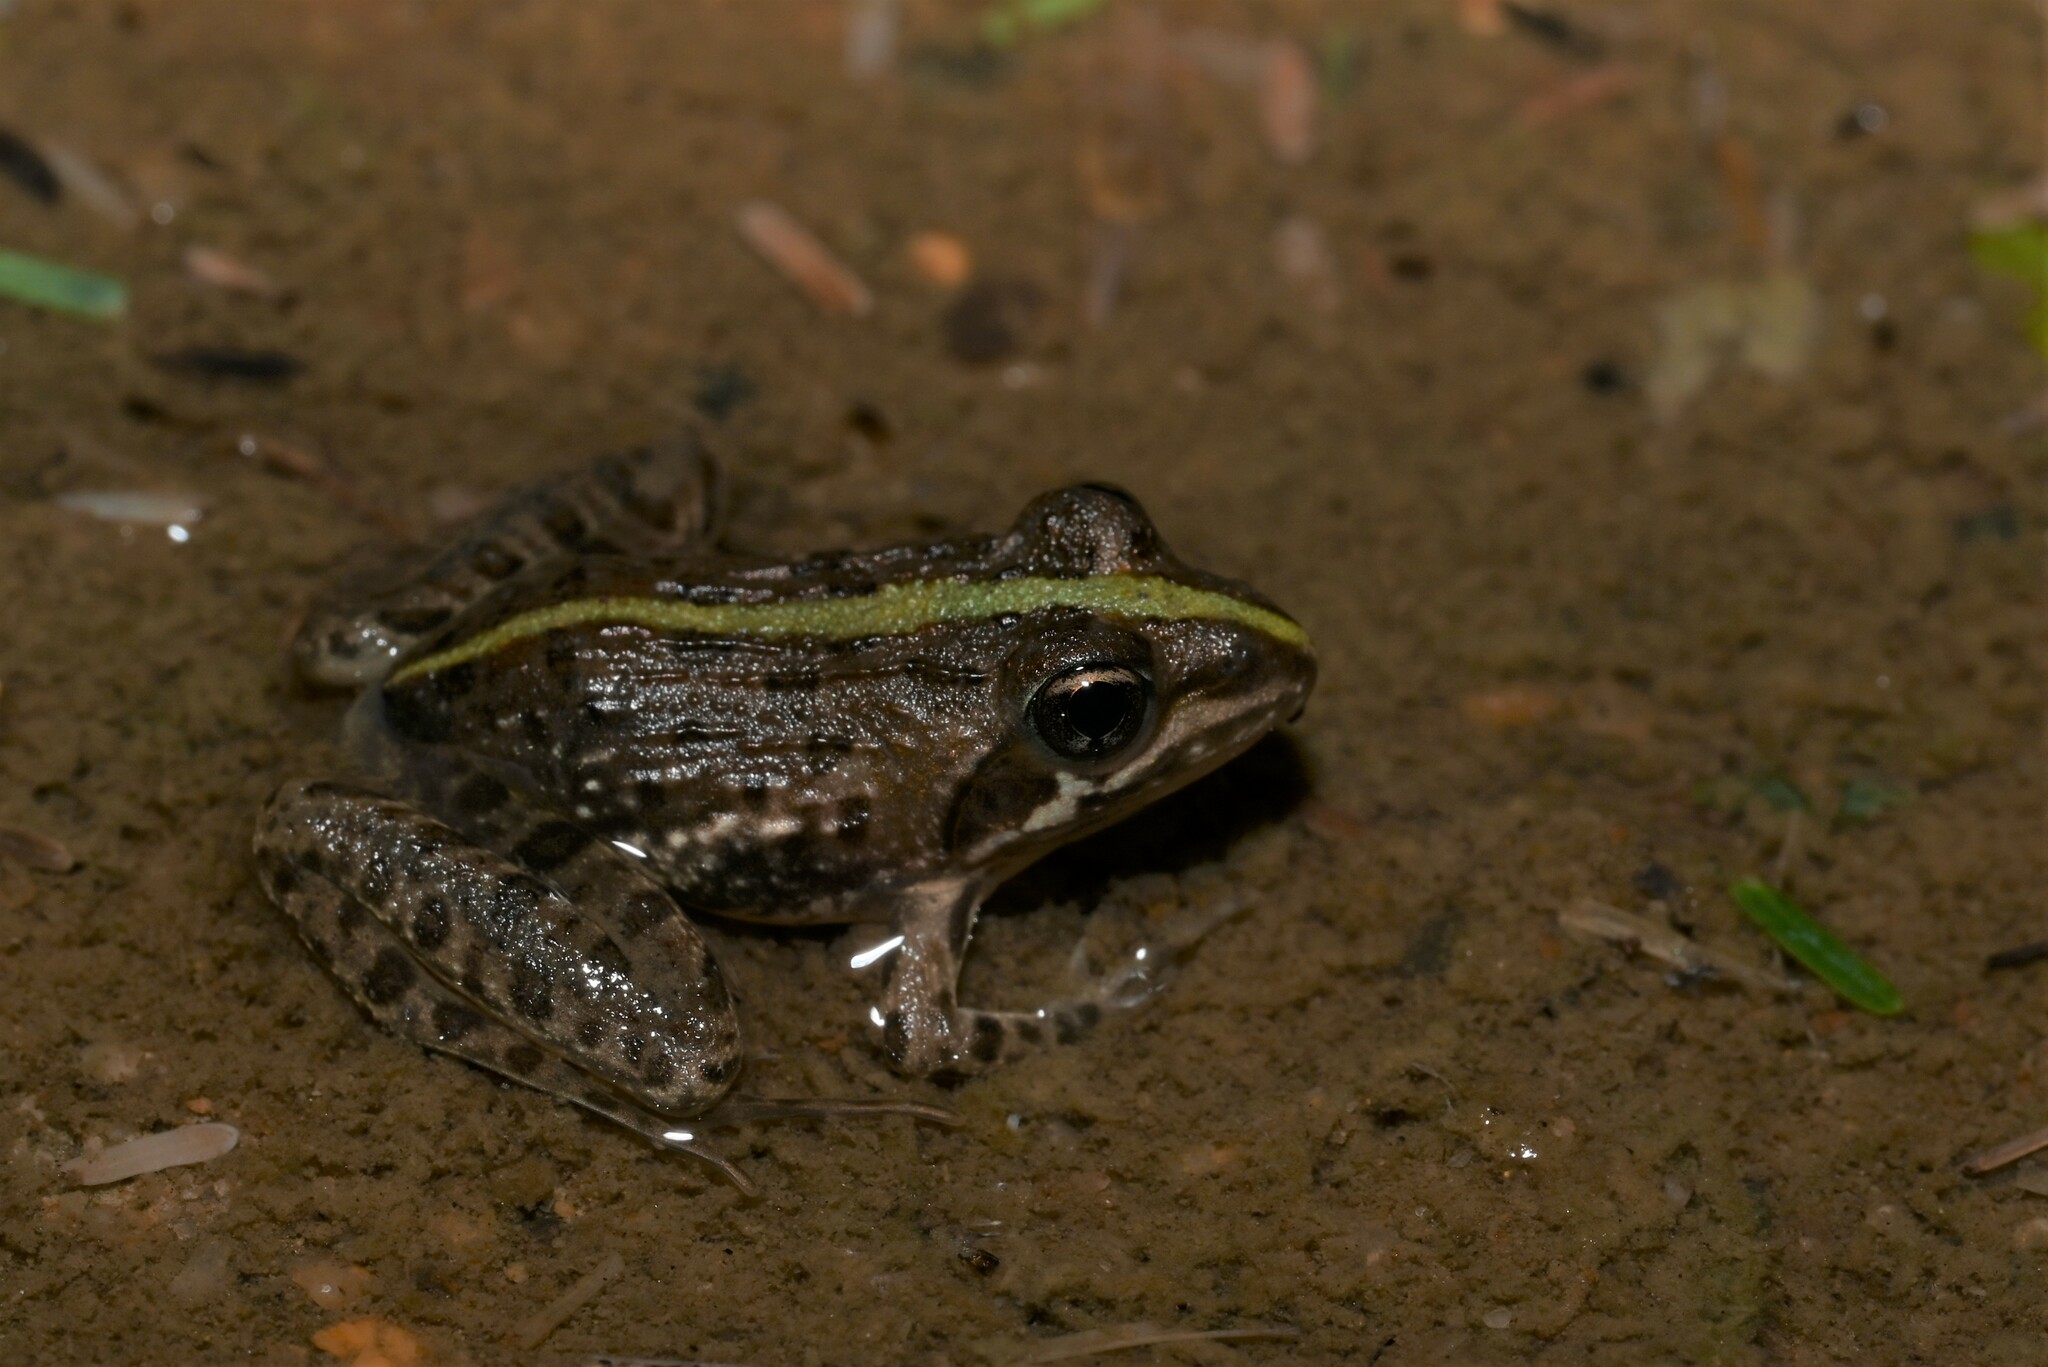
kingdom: Animalia
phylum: Chordata
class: Amphibia
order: Anura
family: Pyxicephalidae
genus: Amietia
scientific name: Amietia delalandii
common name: Delalande's river frog
